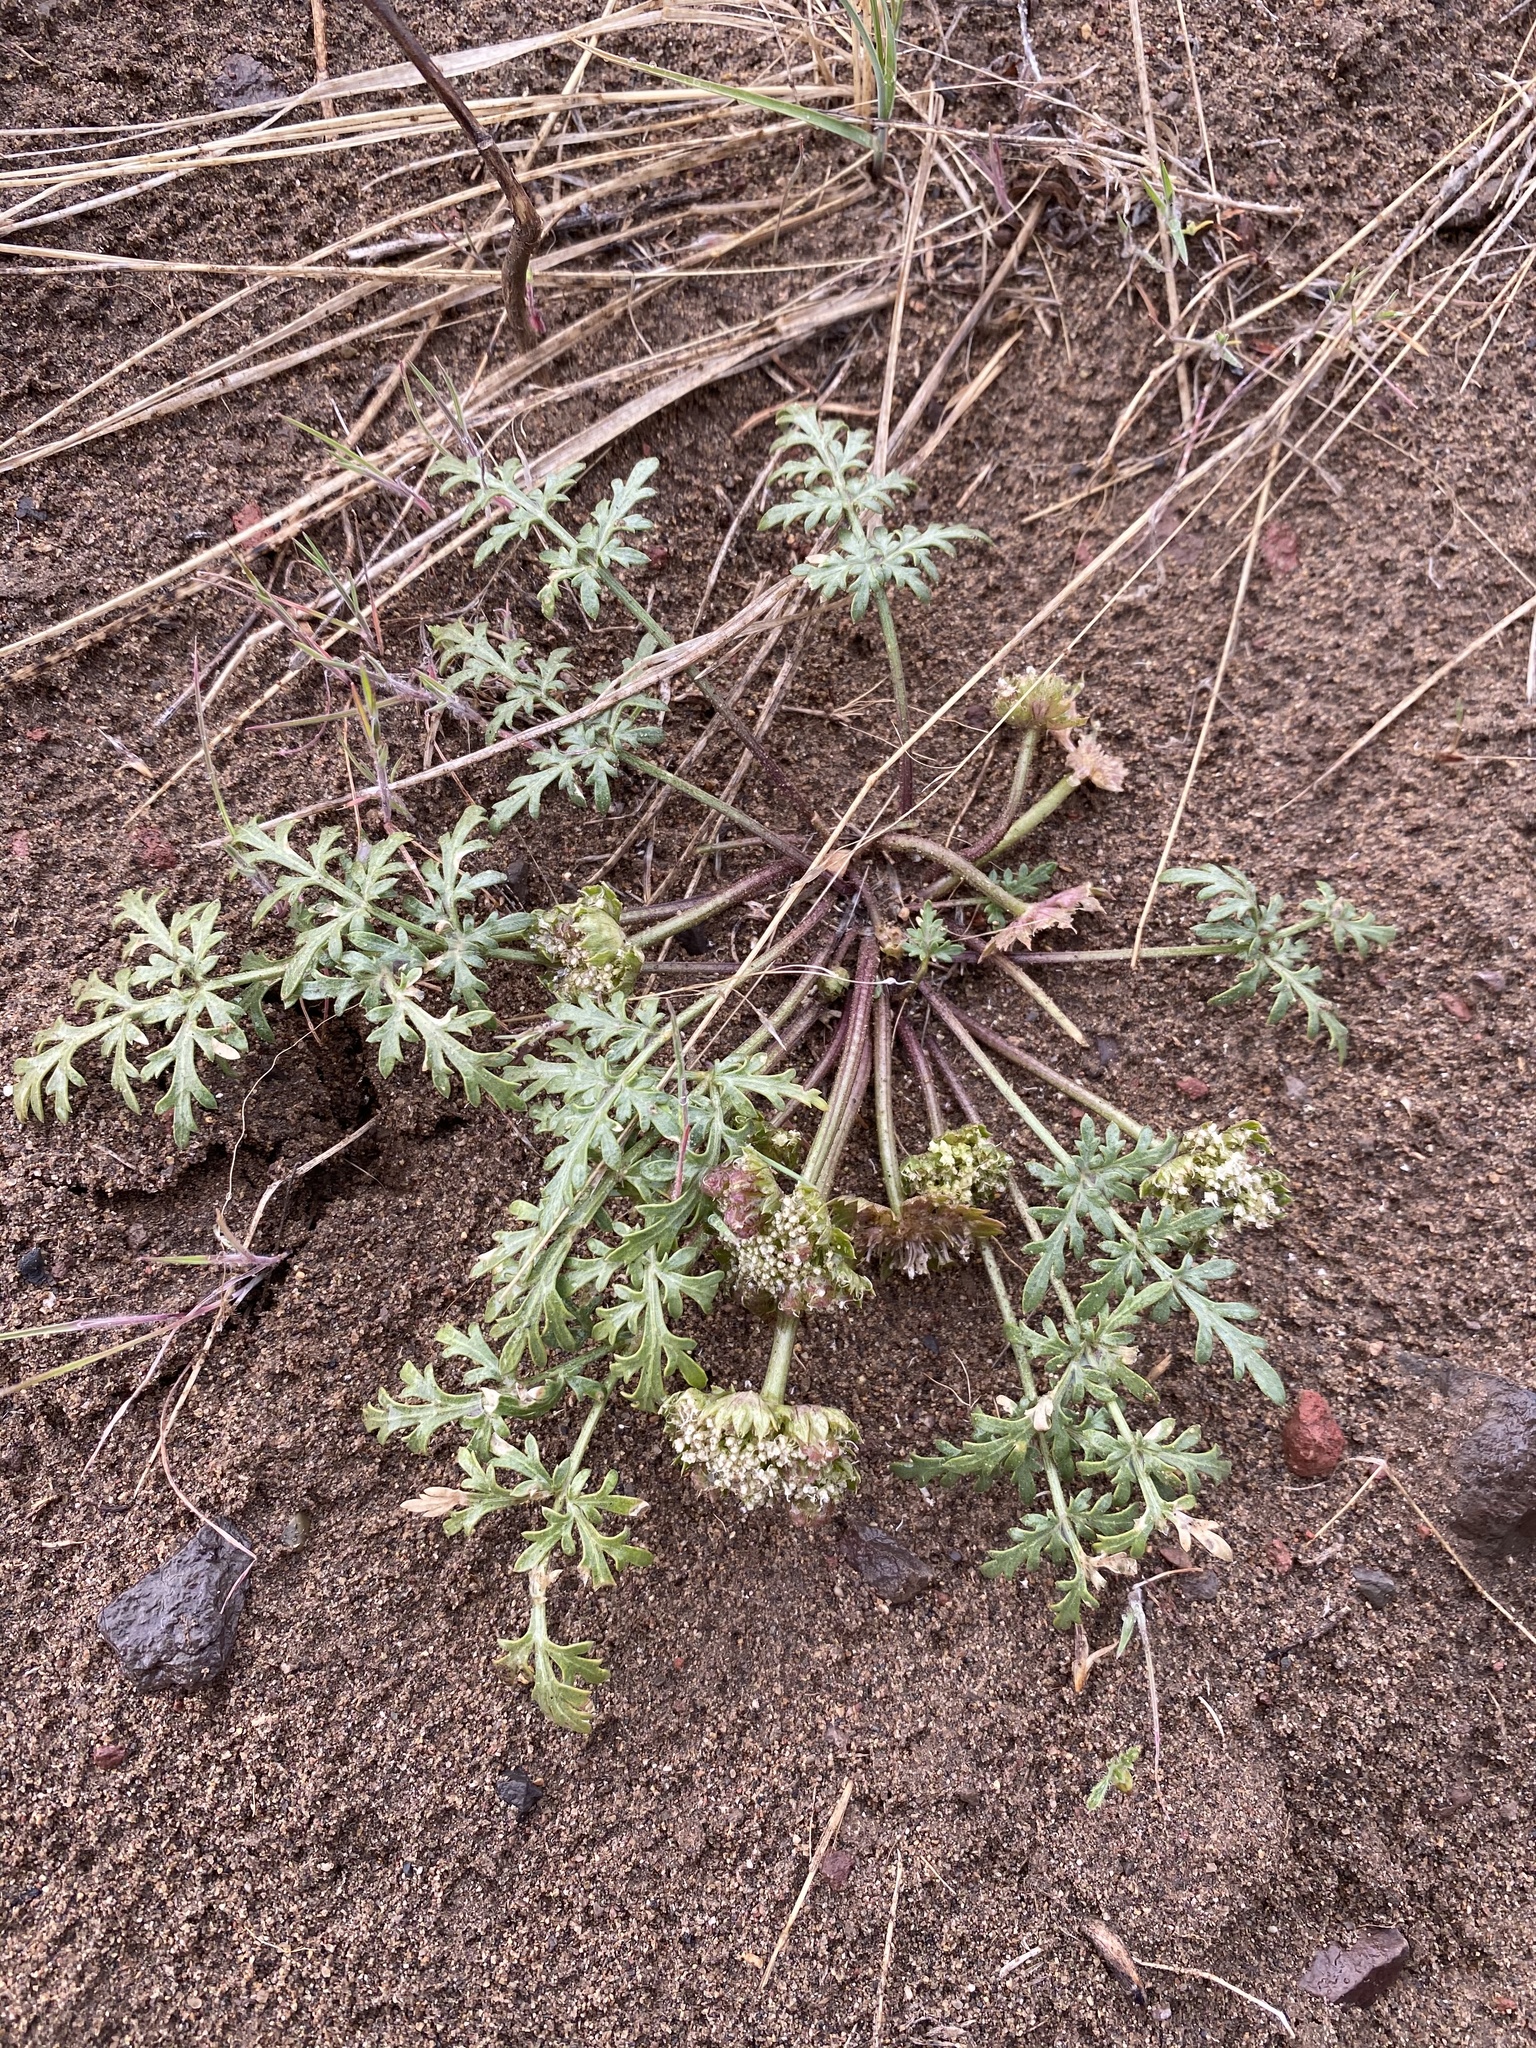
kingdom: Plantae
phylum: Tracheophyta
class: Magnoliopsida
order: Apiales
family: Apiaceae
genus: Cymopterus
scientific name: Cymopterus glomeratus
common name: Plains spring parsley
